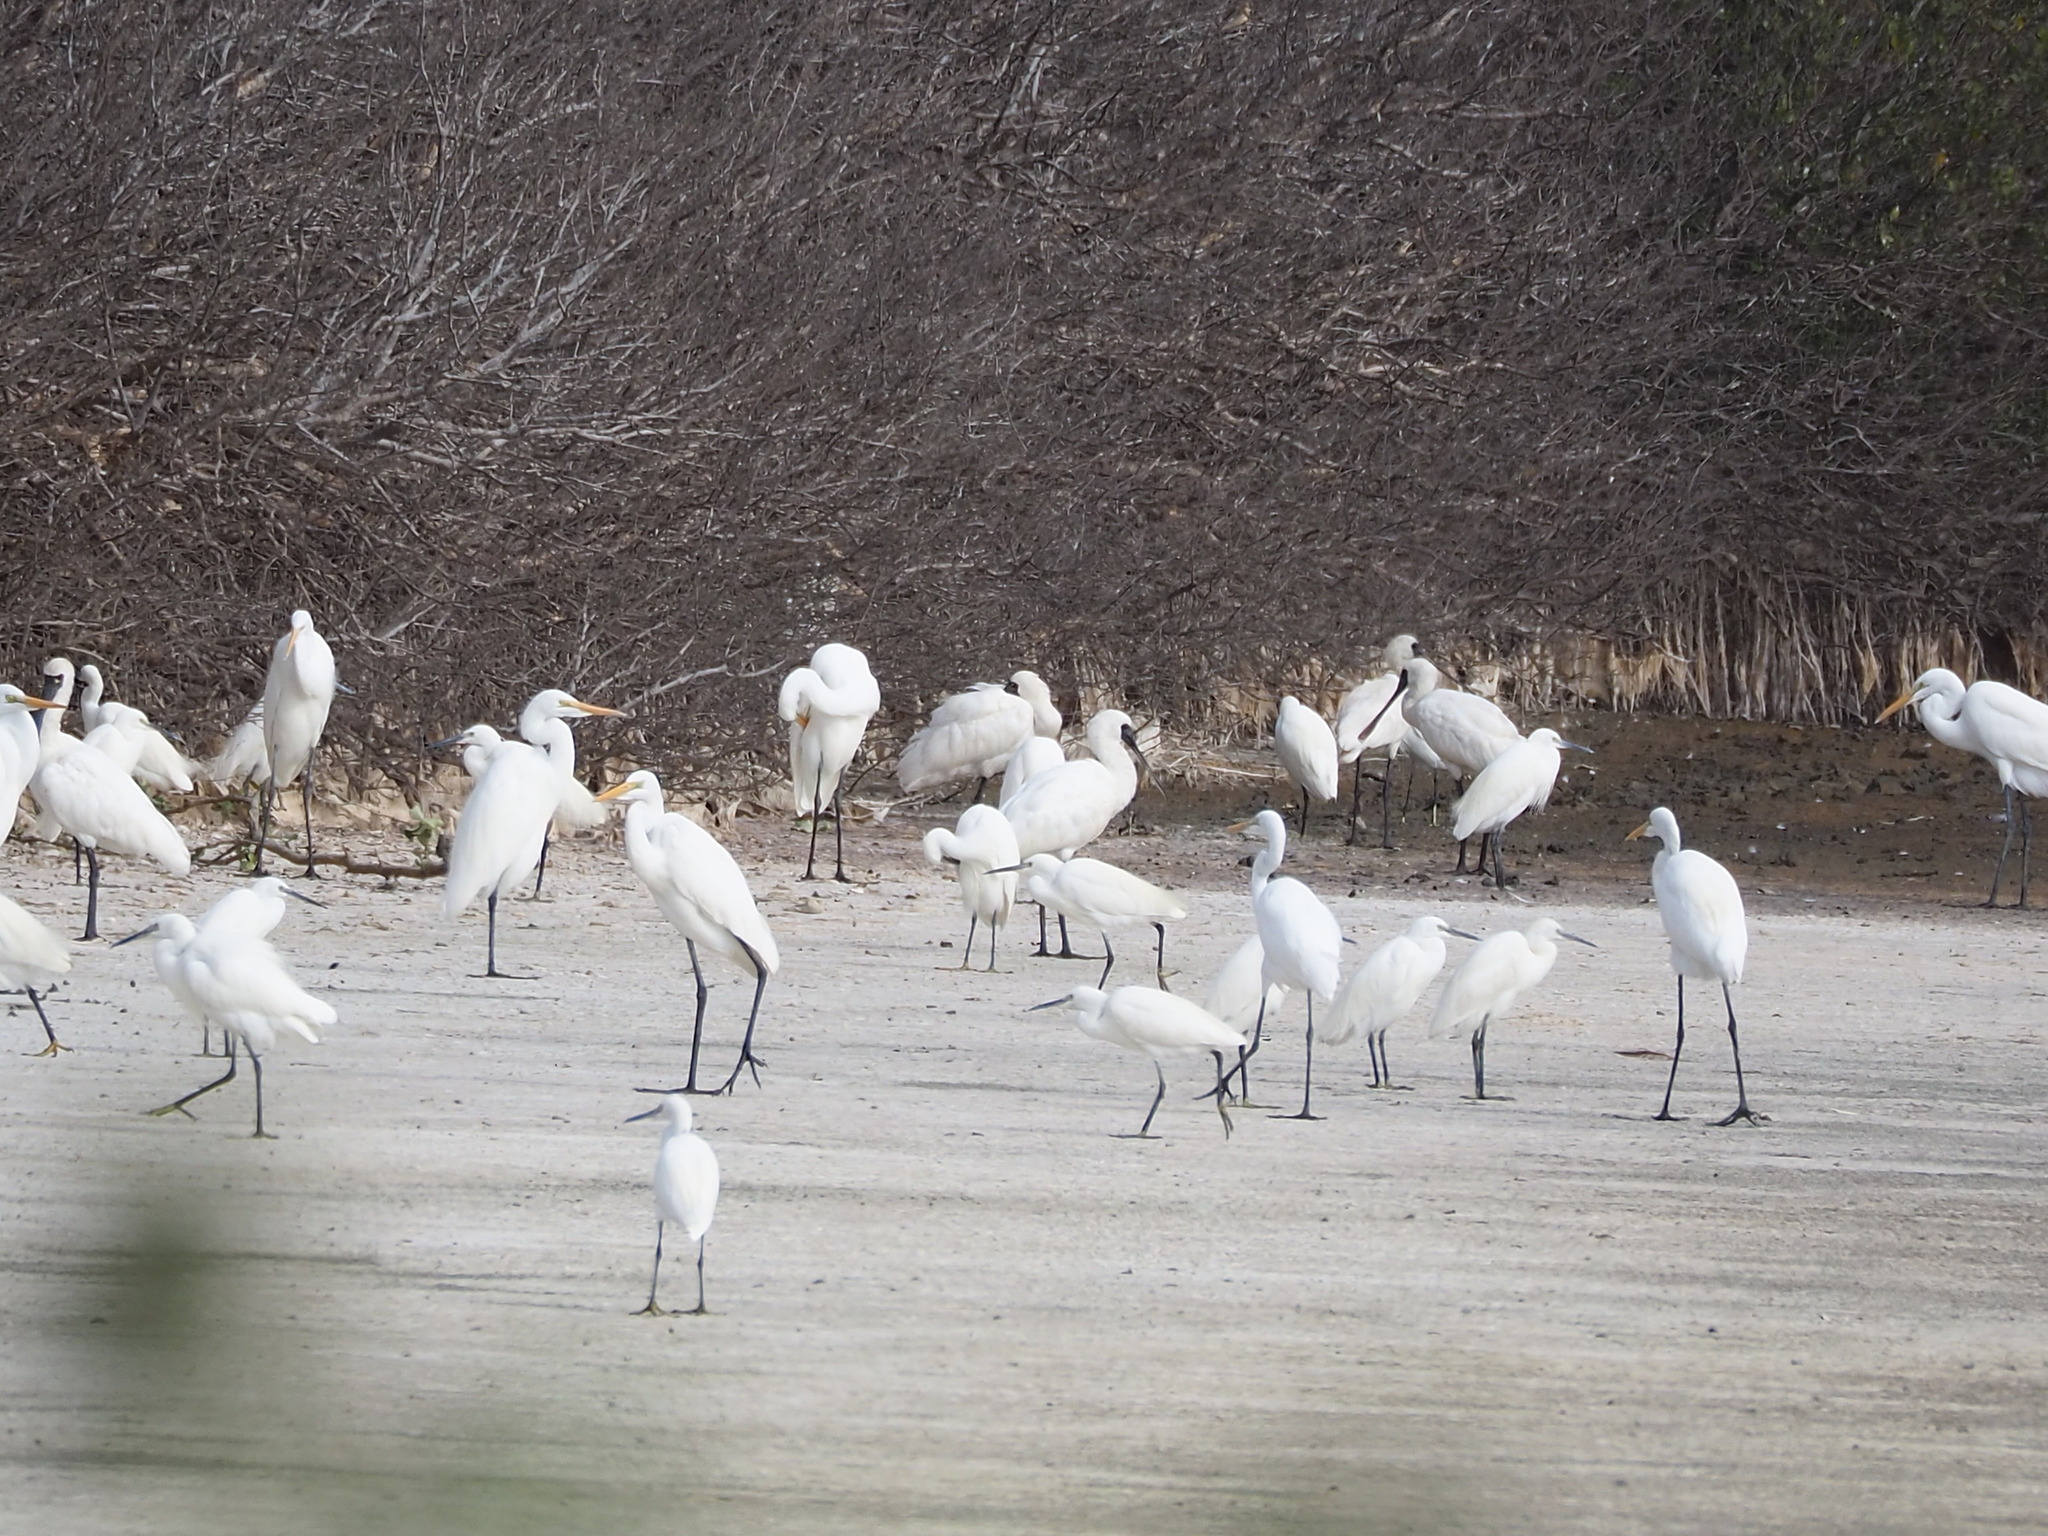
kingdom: Animalia
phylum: Chordata
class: Aves
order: Pelecaniformes
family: Threskiornithidae
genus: Platalea
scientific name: Platalea minor
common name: Black-faced spoonbill
